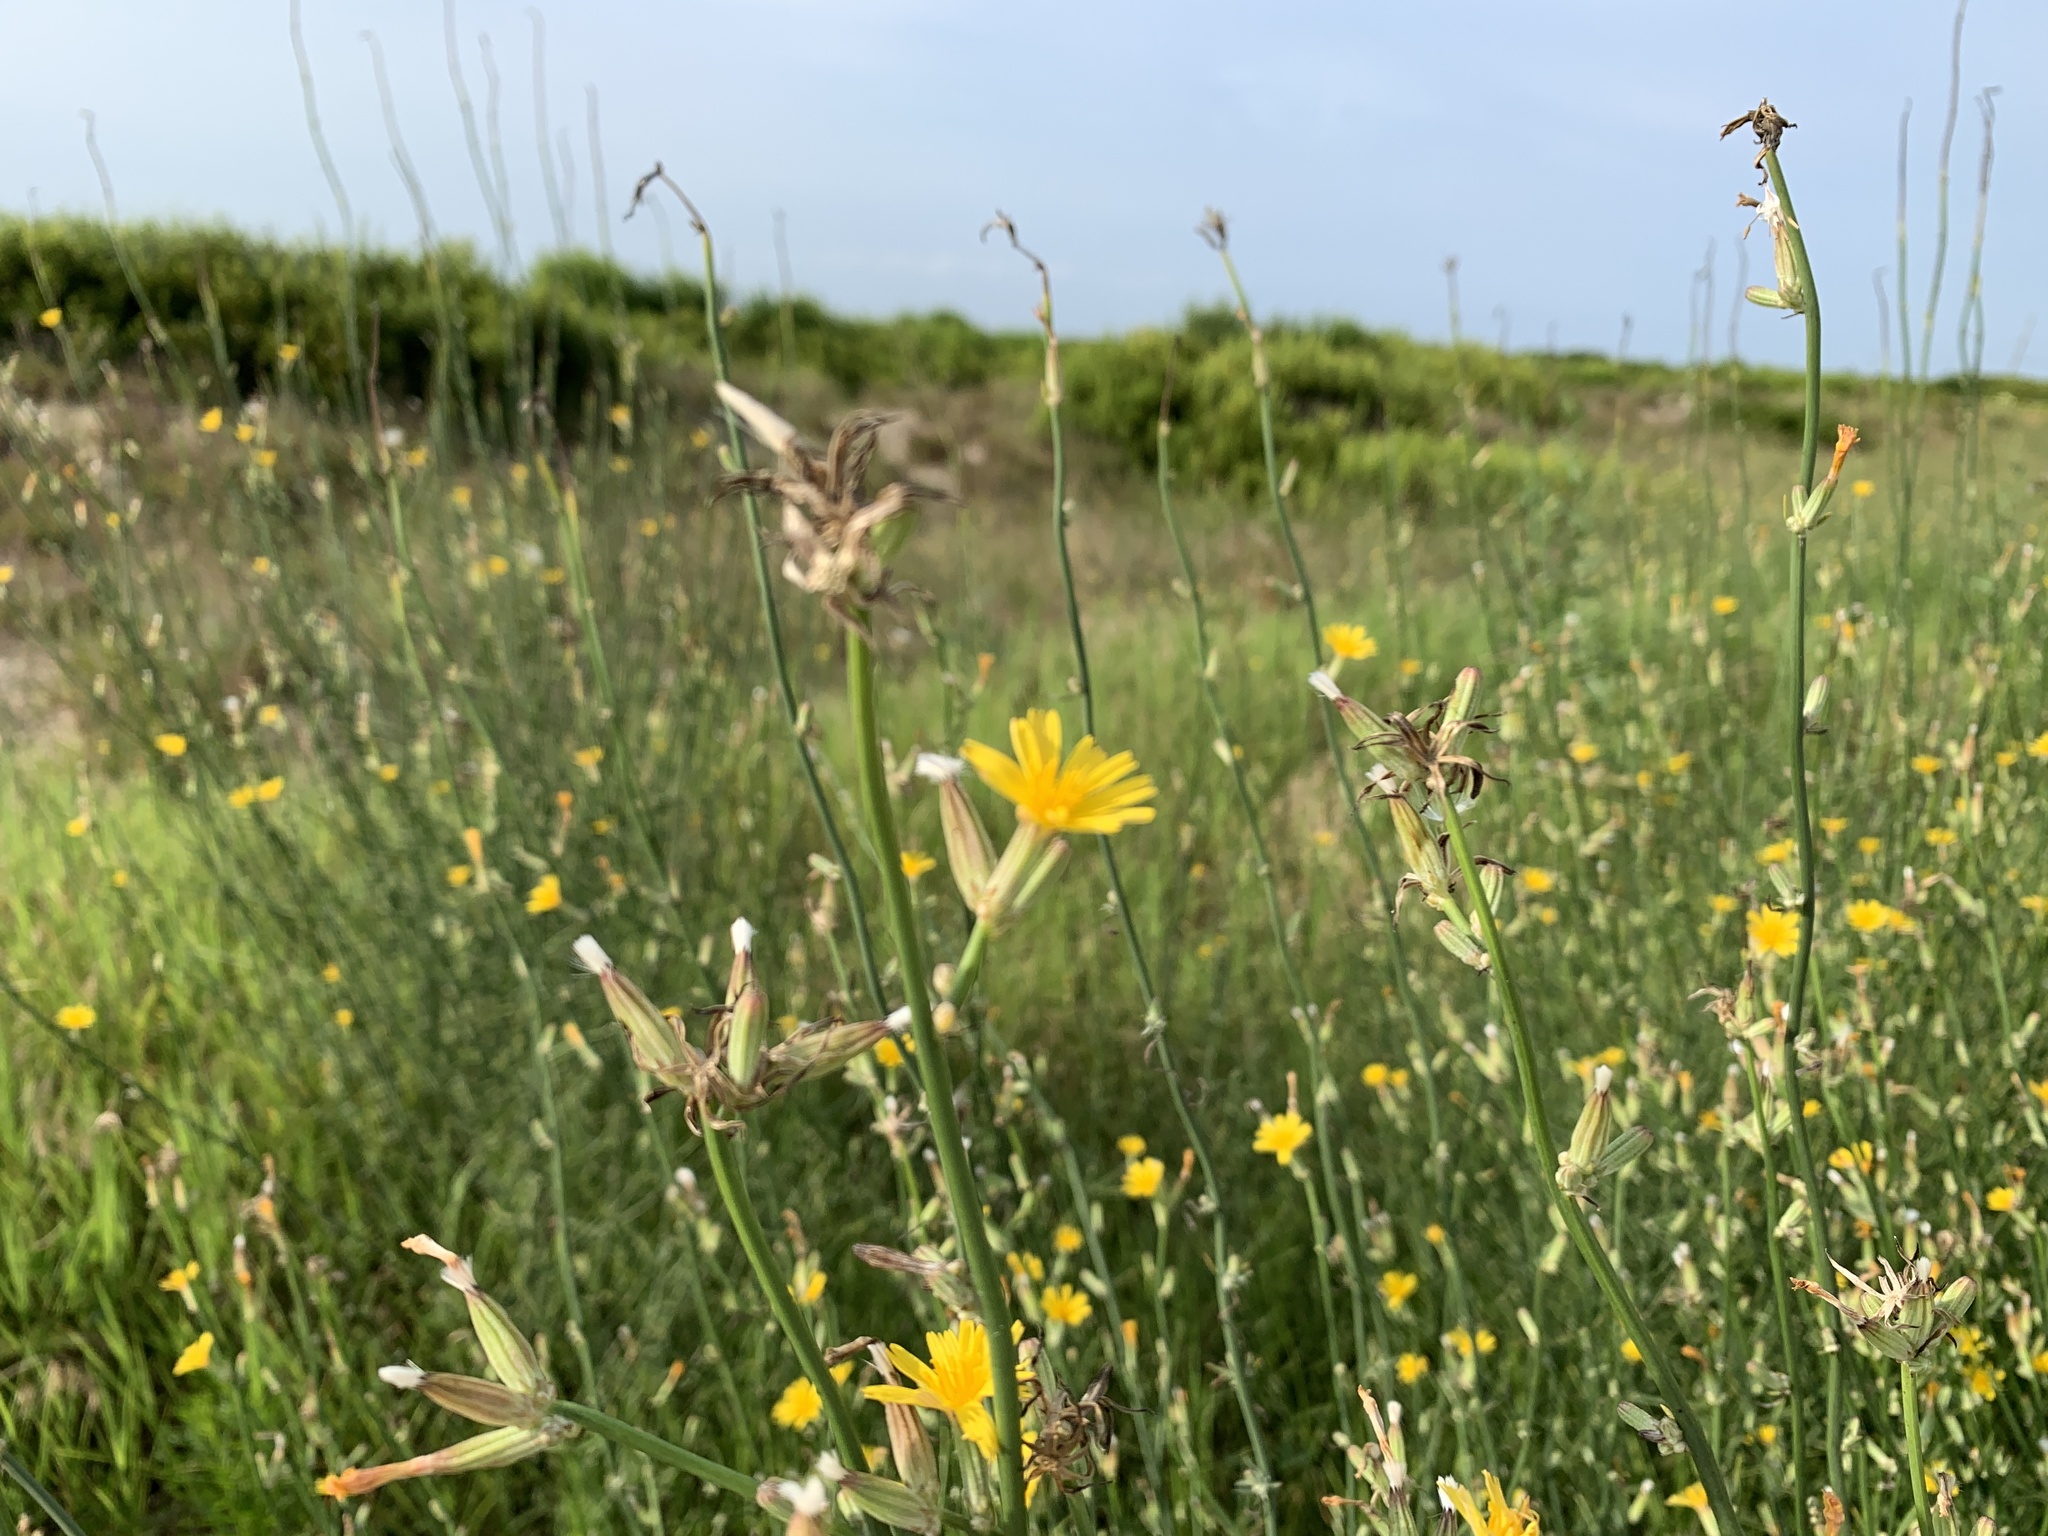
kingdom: Plantae
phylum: Tracheophyta
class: Magnoliopsida
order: Asterales
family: Asteraceae
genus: Chondrilla
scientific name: Chondrilla juncea
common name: Skeleton weed
